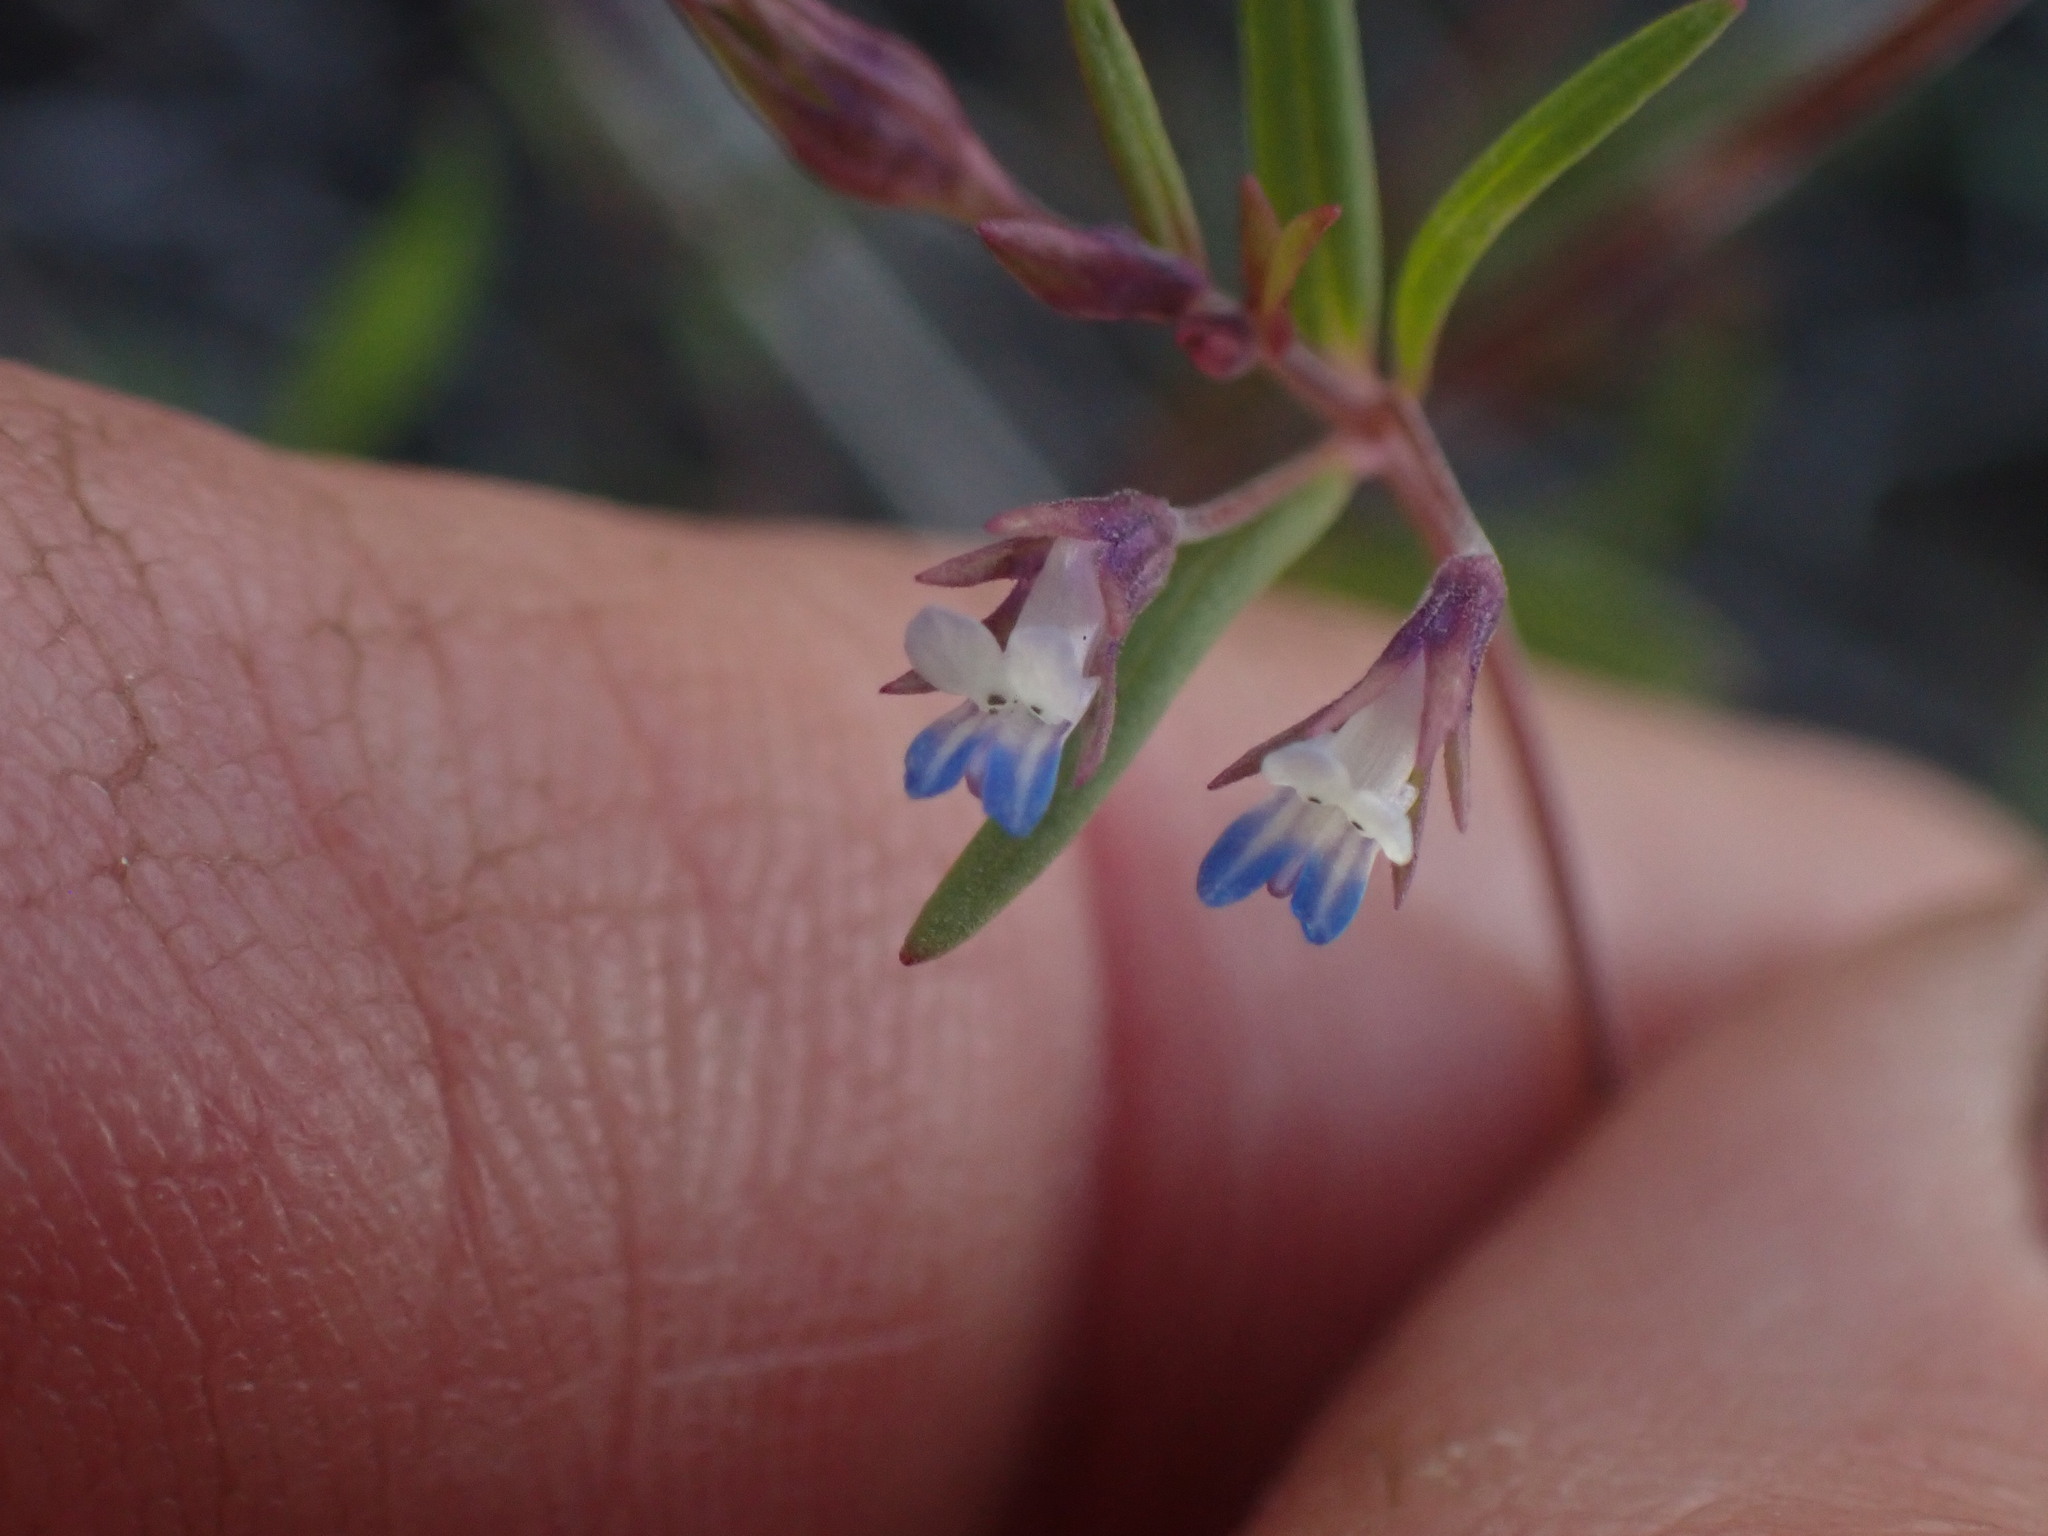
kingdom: Plantae
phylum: Tracheophyta
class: Magnoliopsida
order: Lamiales
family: Plantaginaceae
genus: Collinsia
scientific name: Collinsia parviflora
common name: Blue-lips
